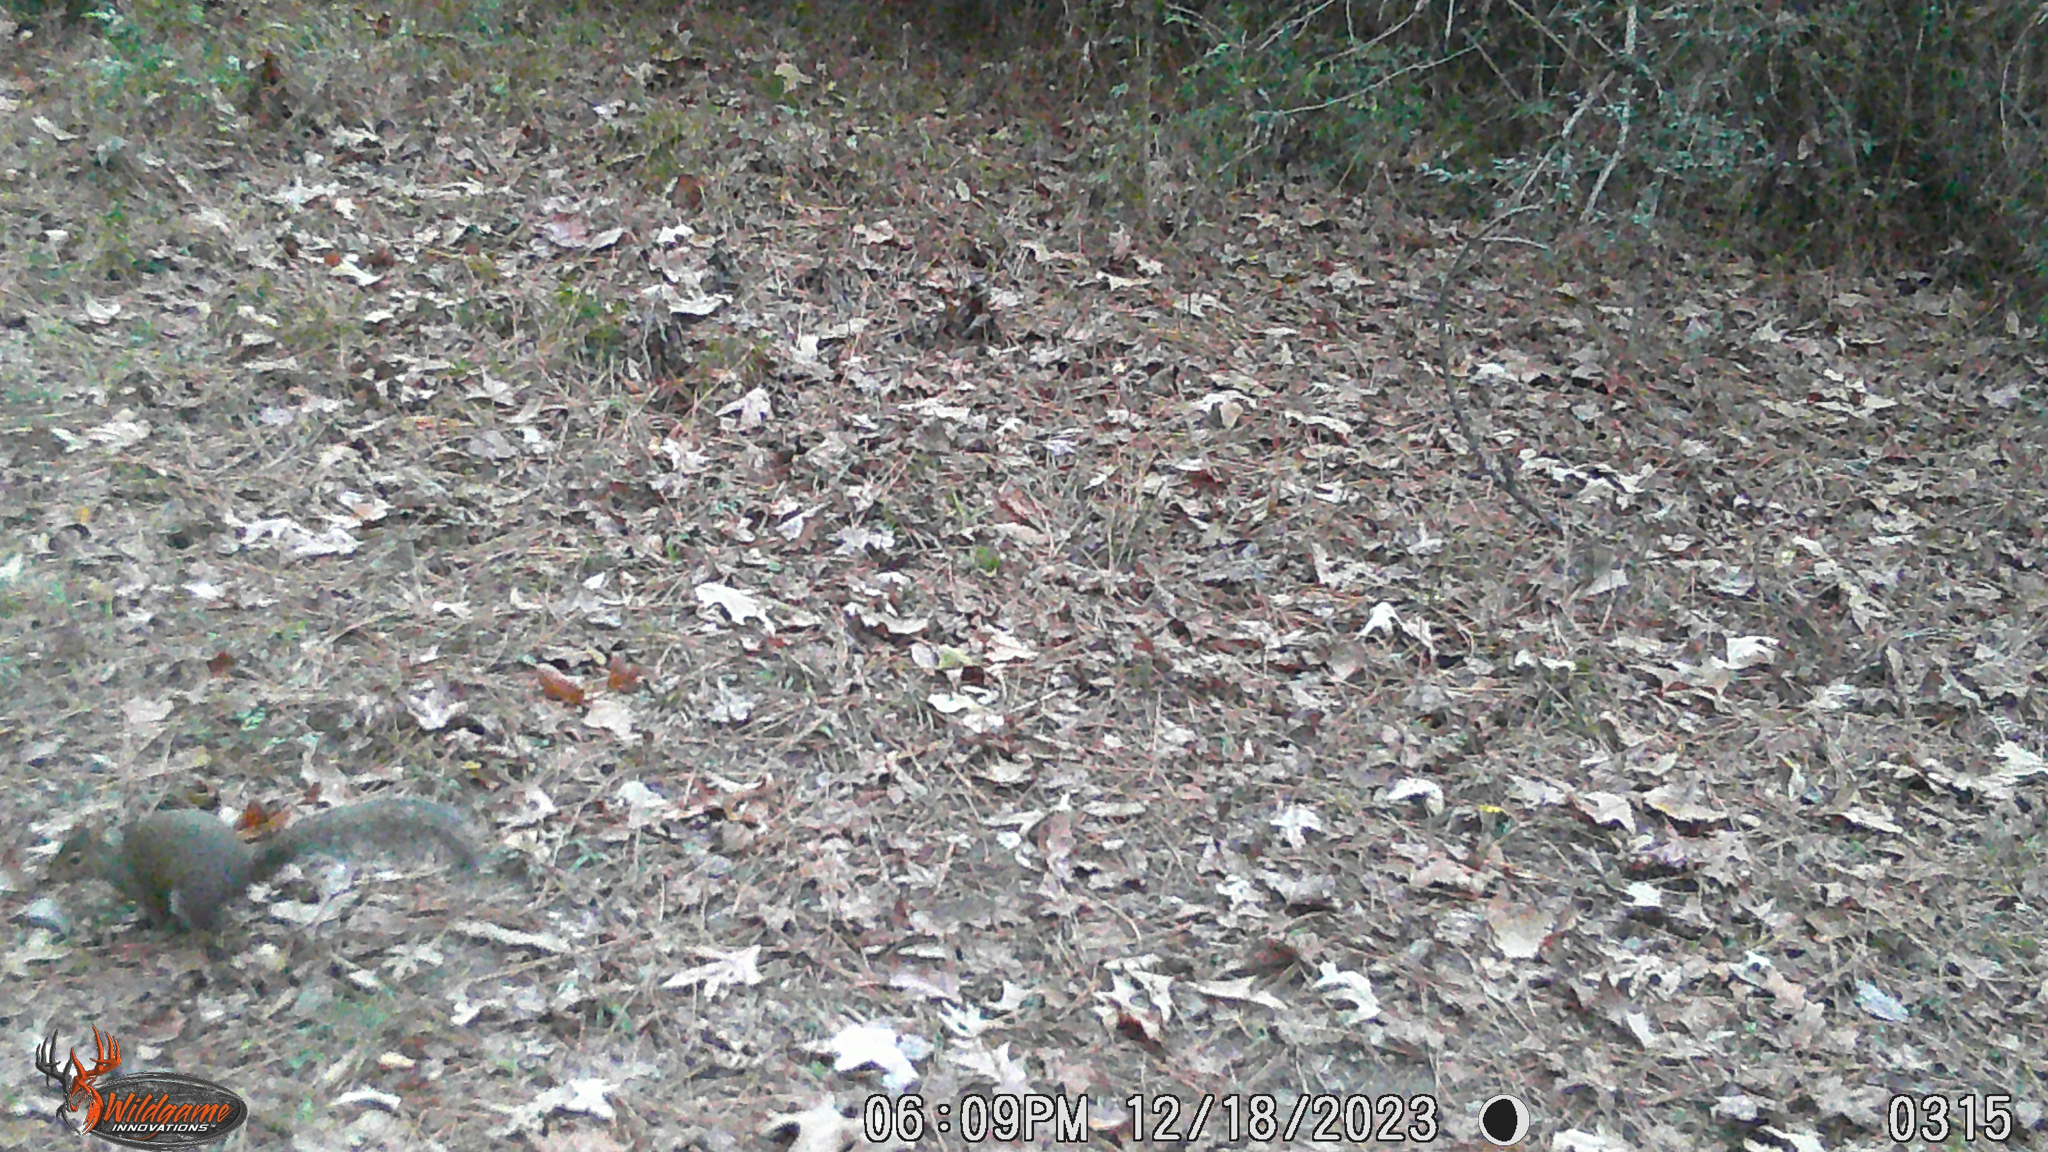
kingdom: Animalia
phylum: Chordata
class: Mammalia
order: Rodentia
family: Sciuridae
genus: Sciurus
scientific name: Sciurus carolinensis
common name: Eastern gray squirrel
